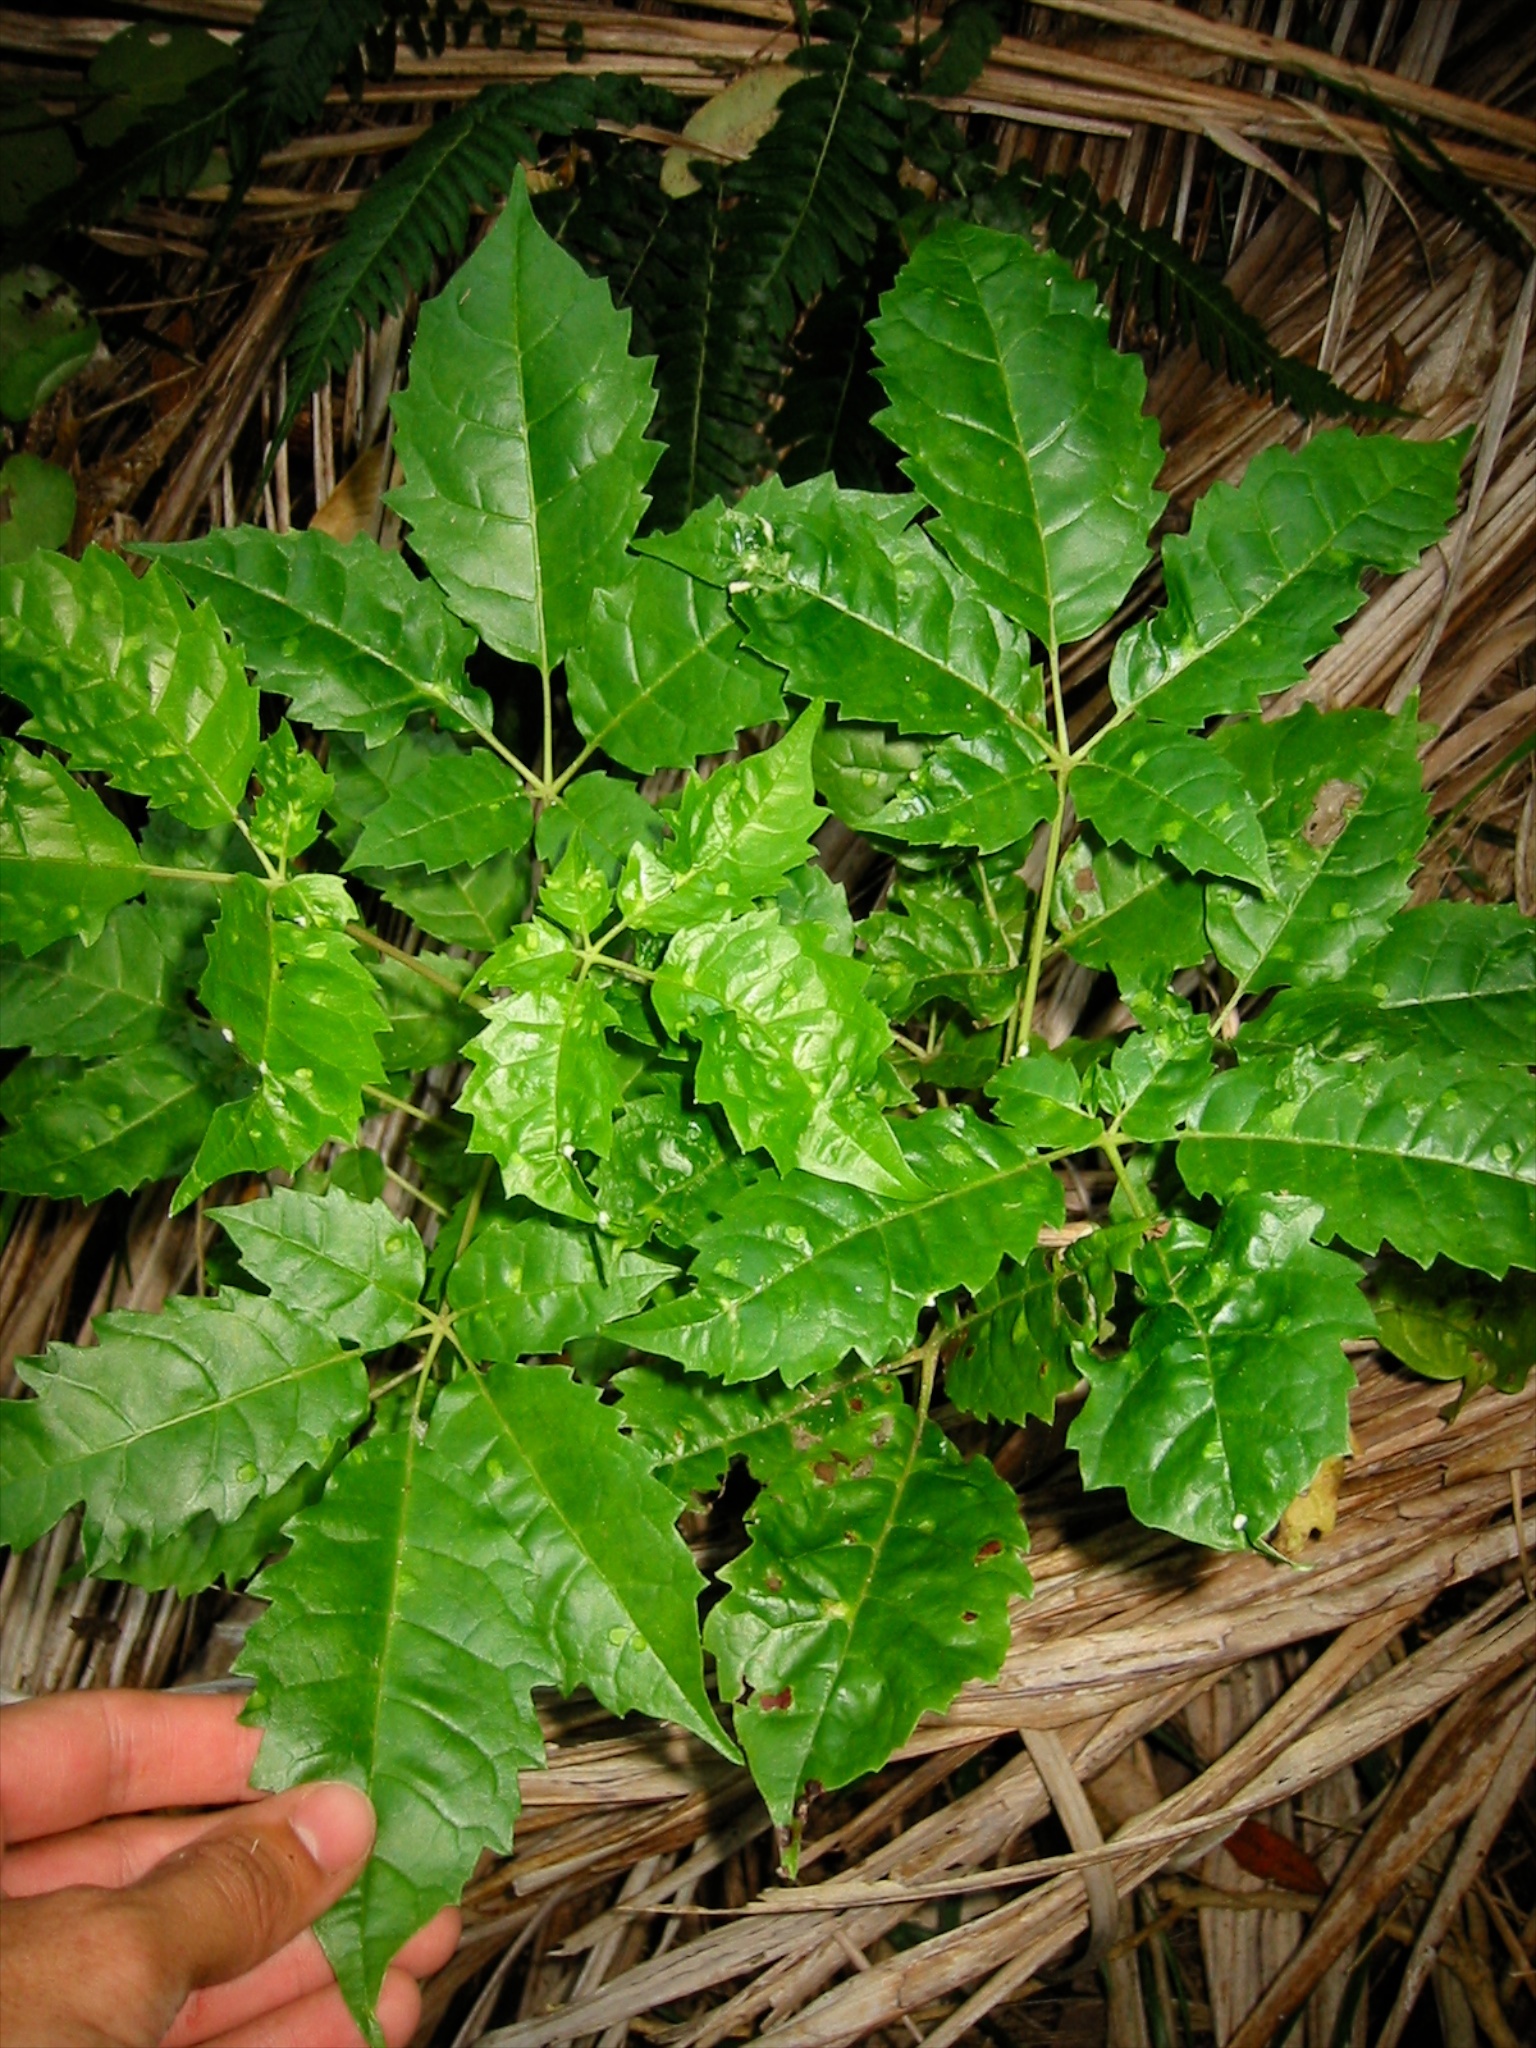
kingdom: Animalia
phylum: Arthropoda
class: Arachnida
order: Trombidiformes
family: Eriophyidae
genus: Acalitus
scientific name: Acalitus
